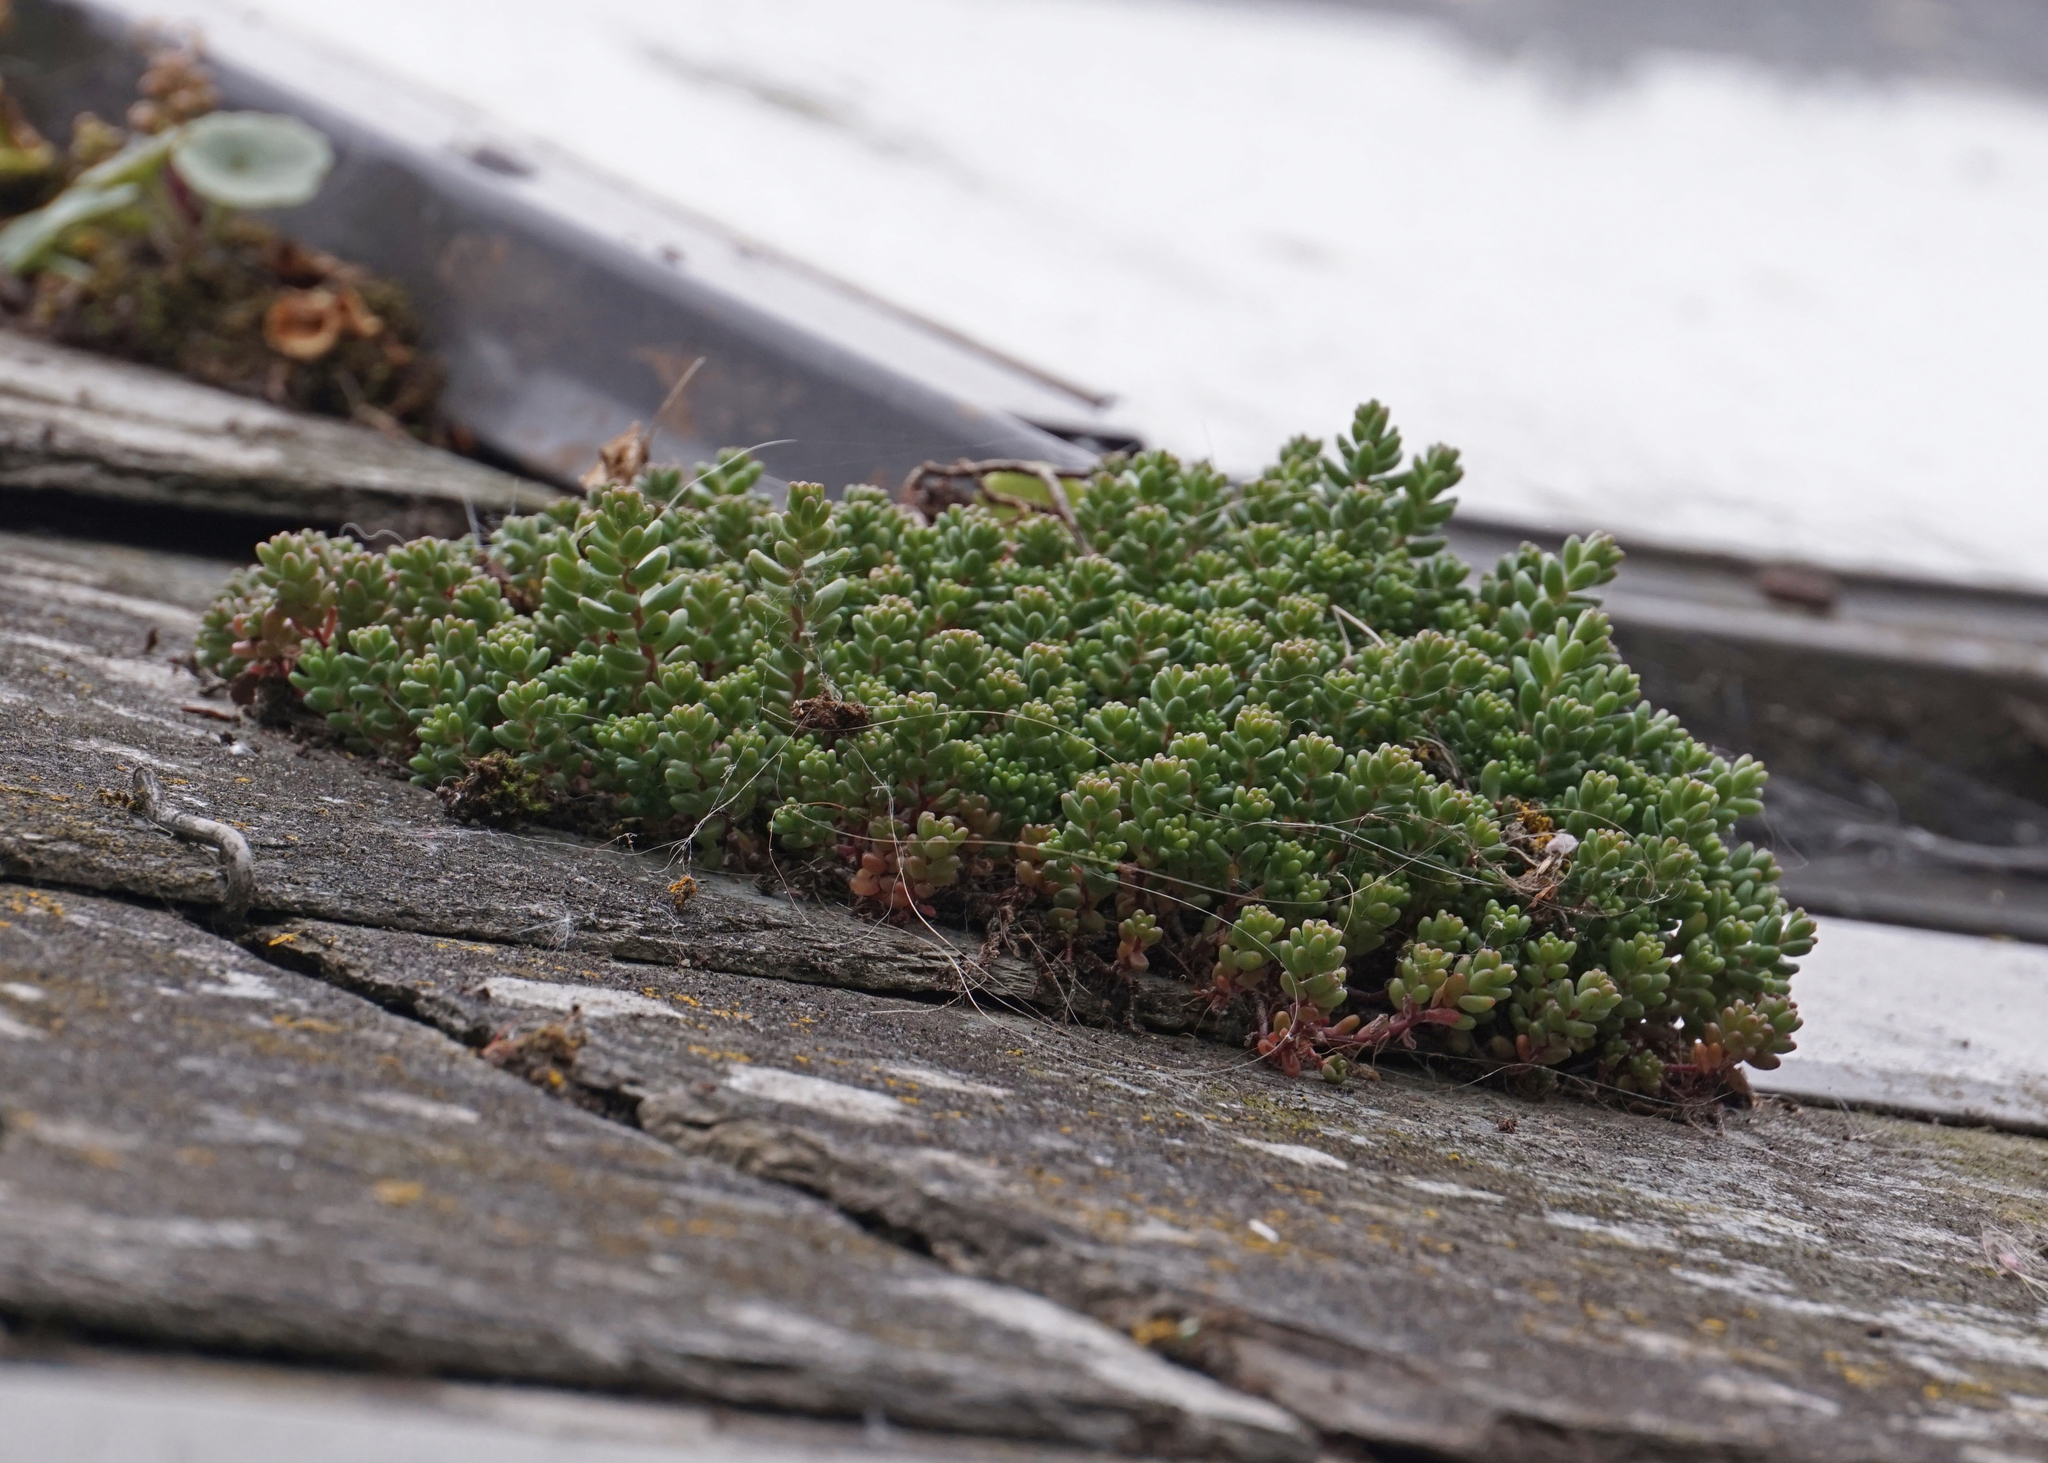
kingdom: Plantae
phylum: Tracheophyta
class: Magnoliopsida
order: Saxifragales
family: Crassulaceae
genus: Sedum
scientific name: Sedum album
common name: White stonecrop
